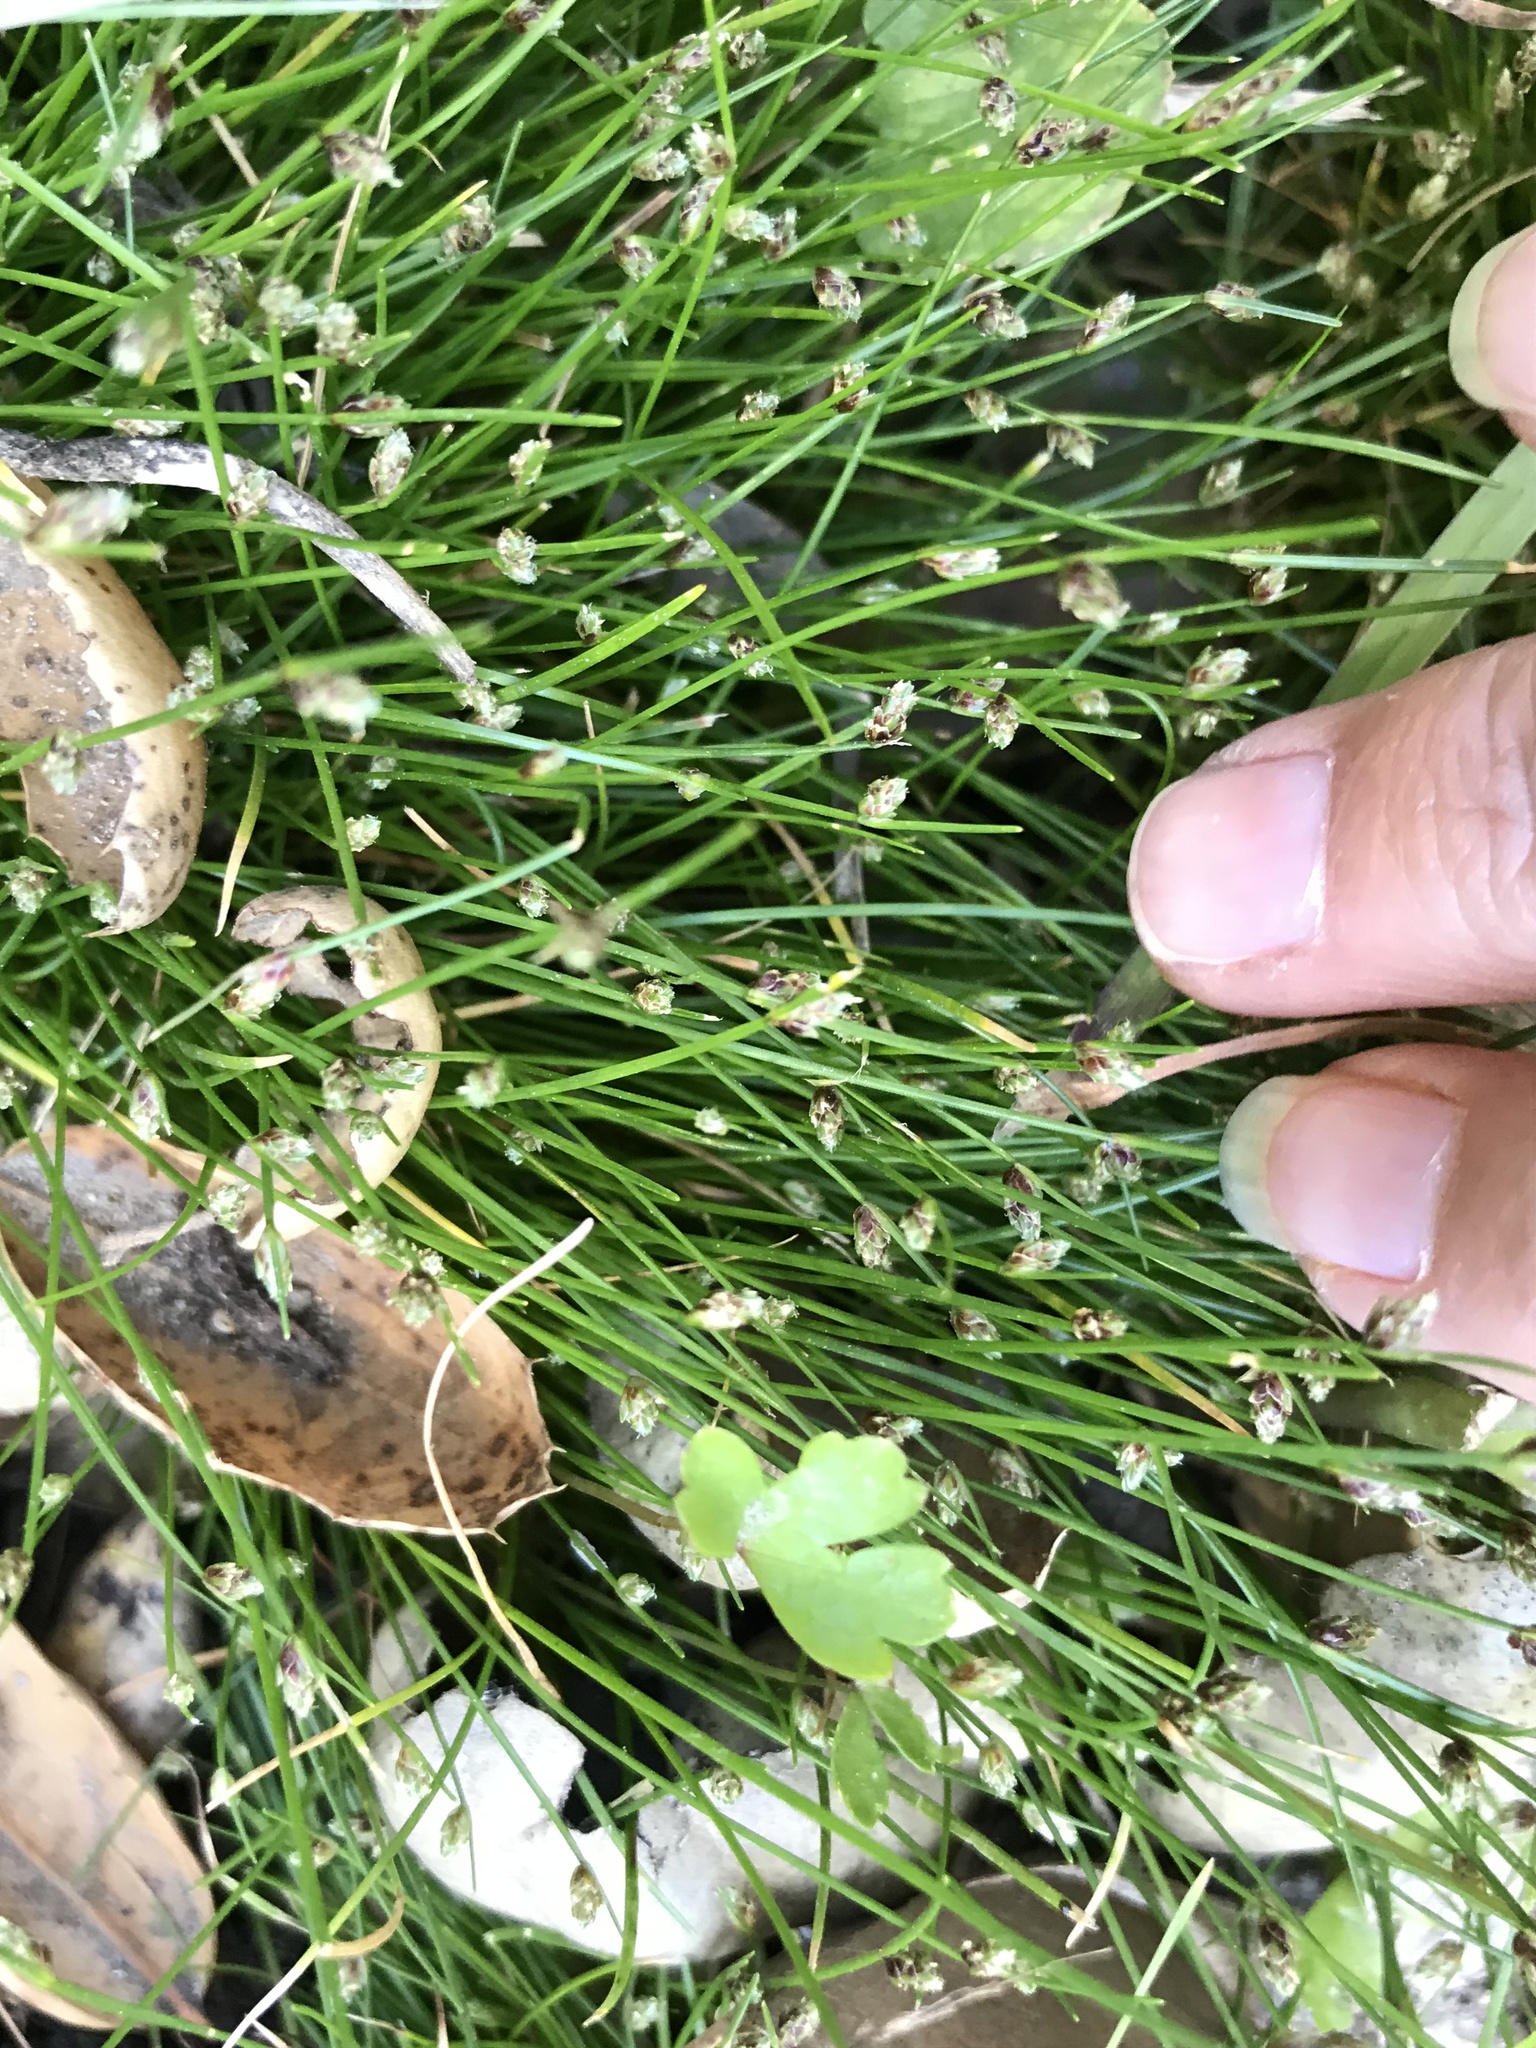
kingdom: Plantae
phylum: Tracheophyta
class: Liliopsida
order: Poales
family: Cyperaceae
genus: Isolepis
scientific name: Isolepis cernua
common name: Slender club-rush
